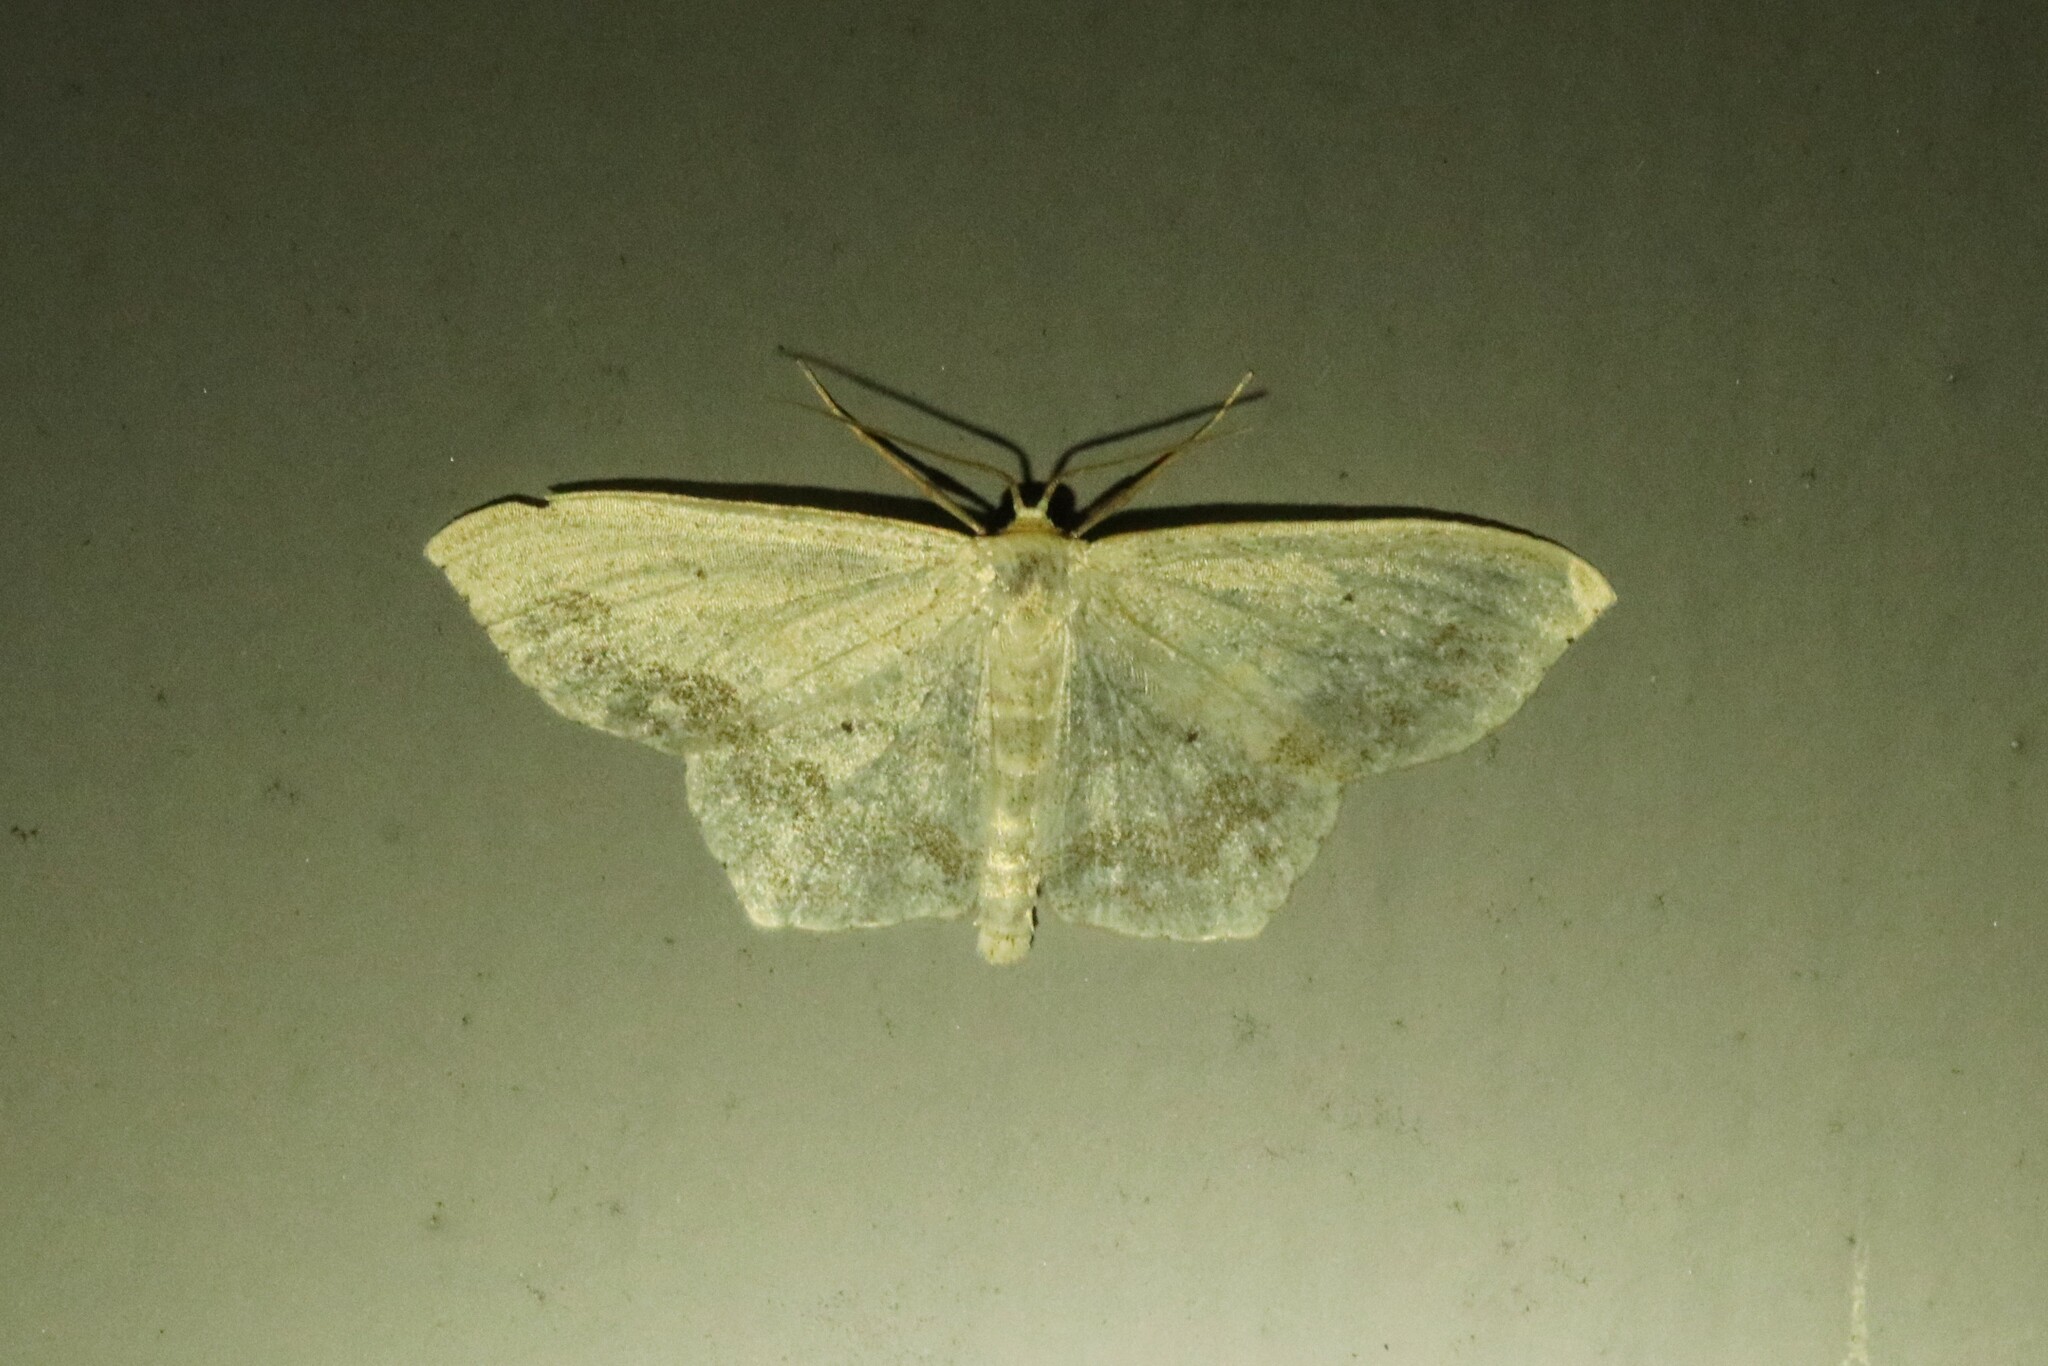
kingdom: Animalia
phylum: Arthropoda
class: Insecta
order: Lepidoptera
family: Geometridae
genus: Scopula
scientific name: Scopula limboundata
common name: Large lace border
